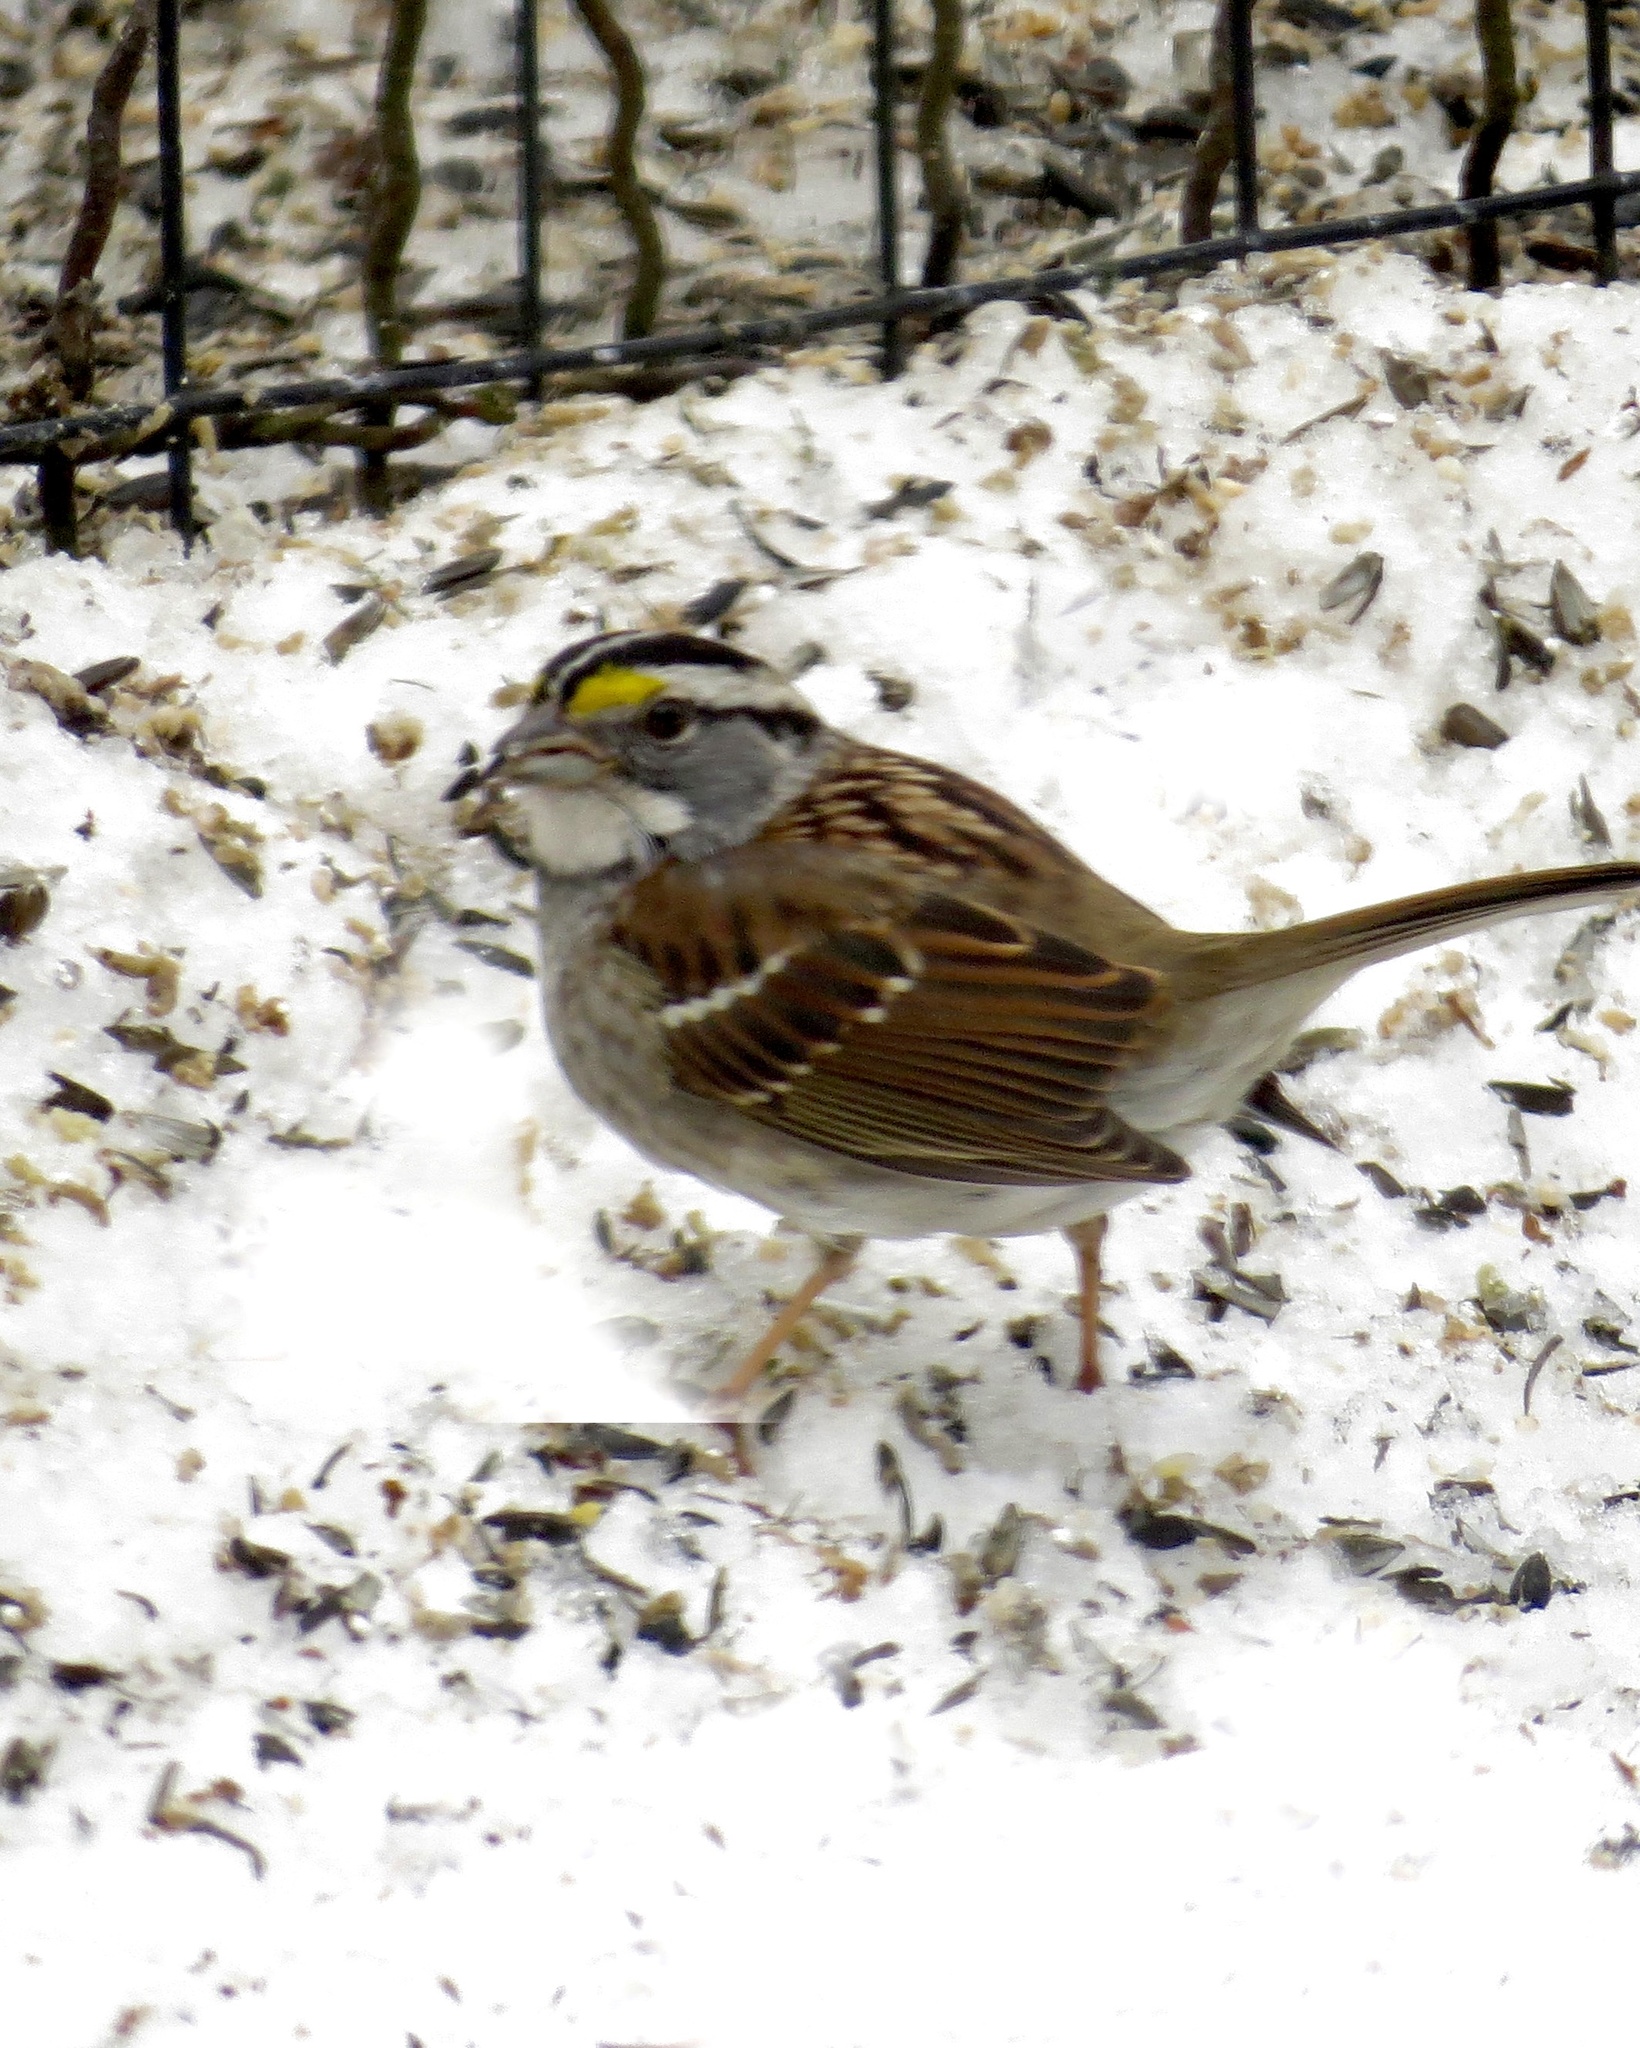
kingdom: Animalia
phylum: Chordata
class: Aves
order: Passeriformes
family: Passerellidae
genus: Zonotrichia
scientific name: Zonotrichia albicollis
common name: White-throated sparrow
